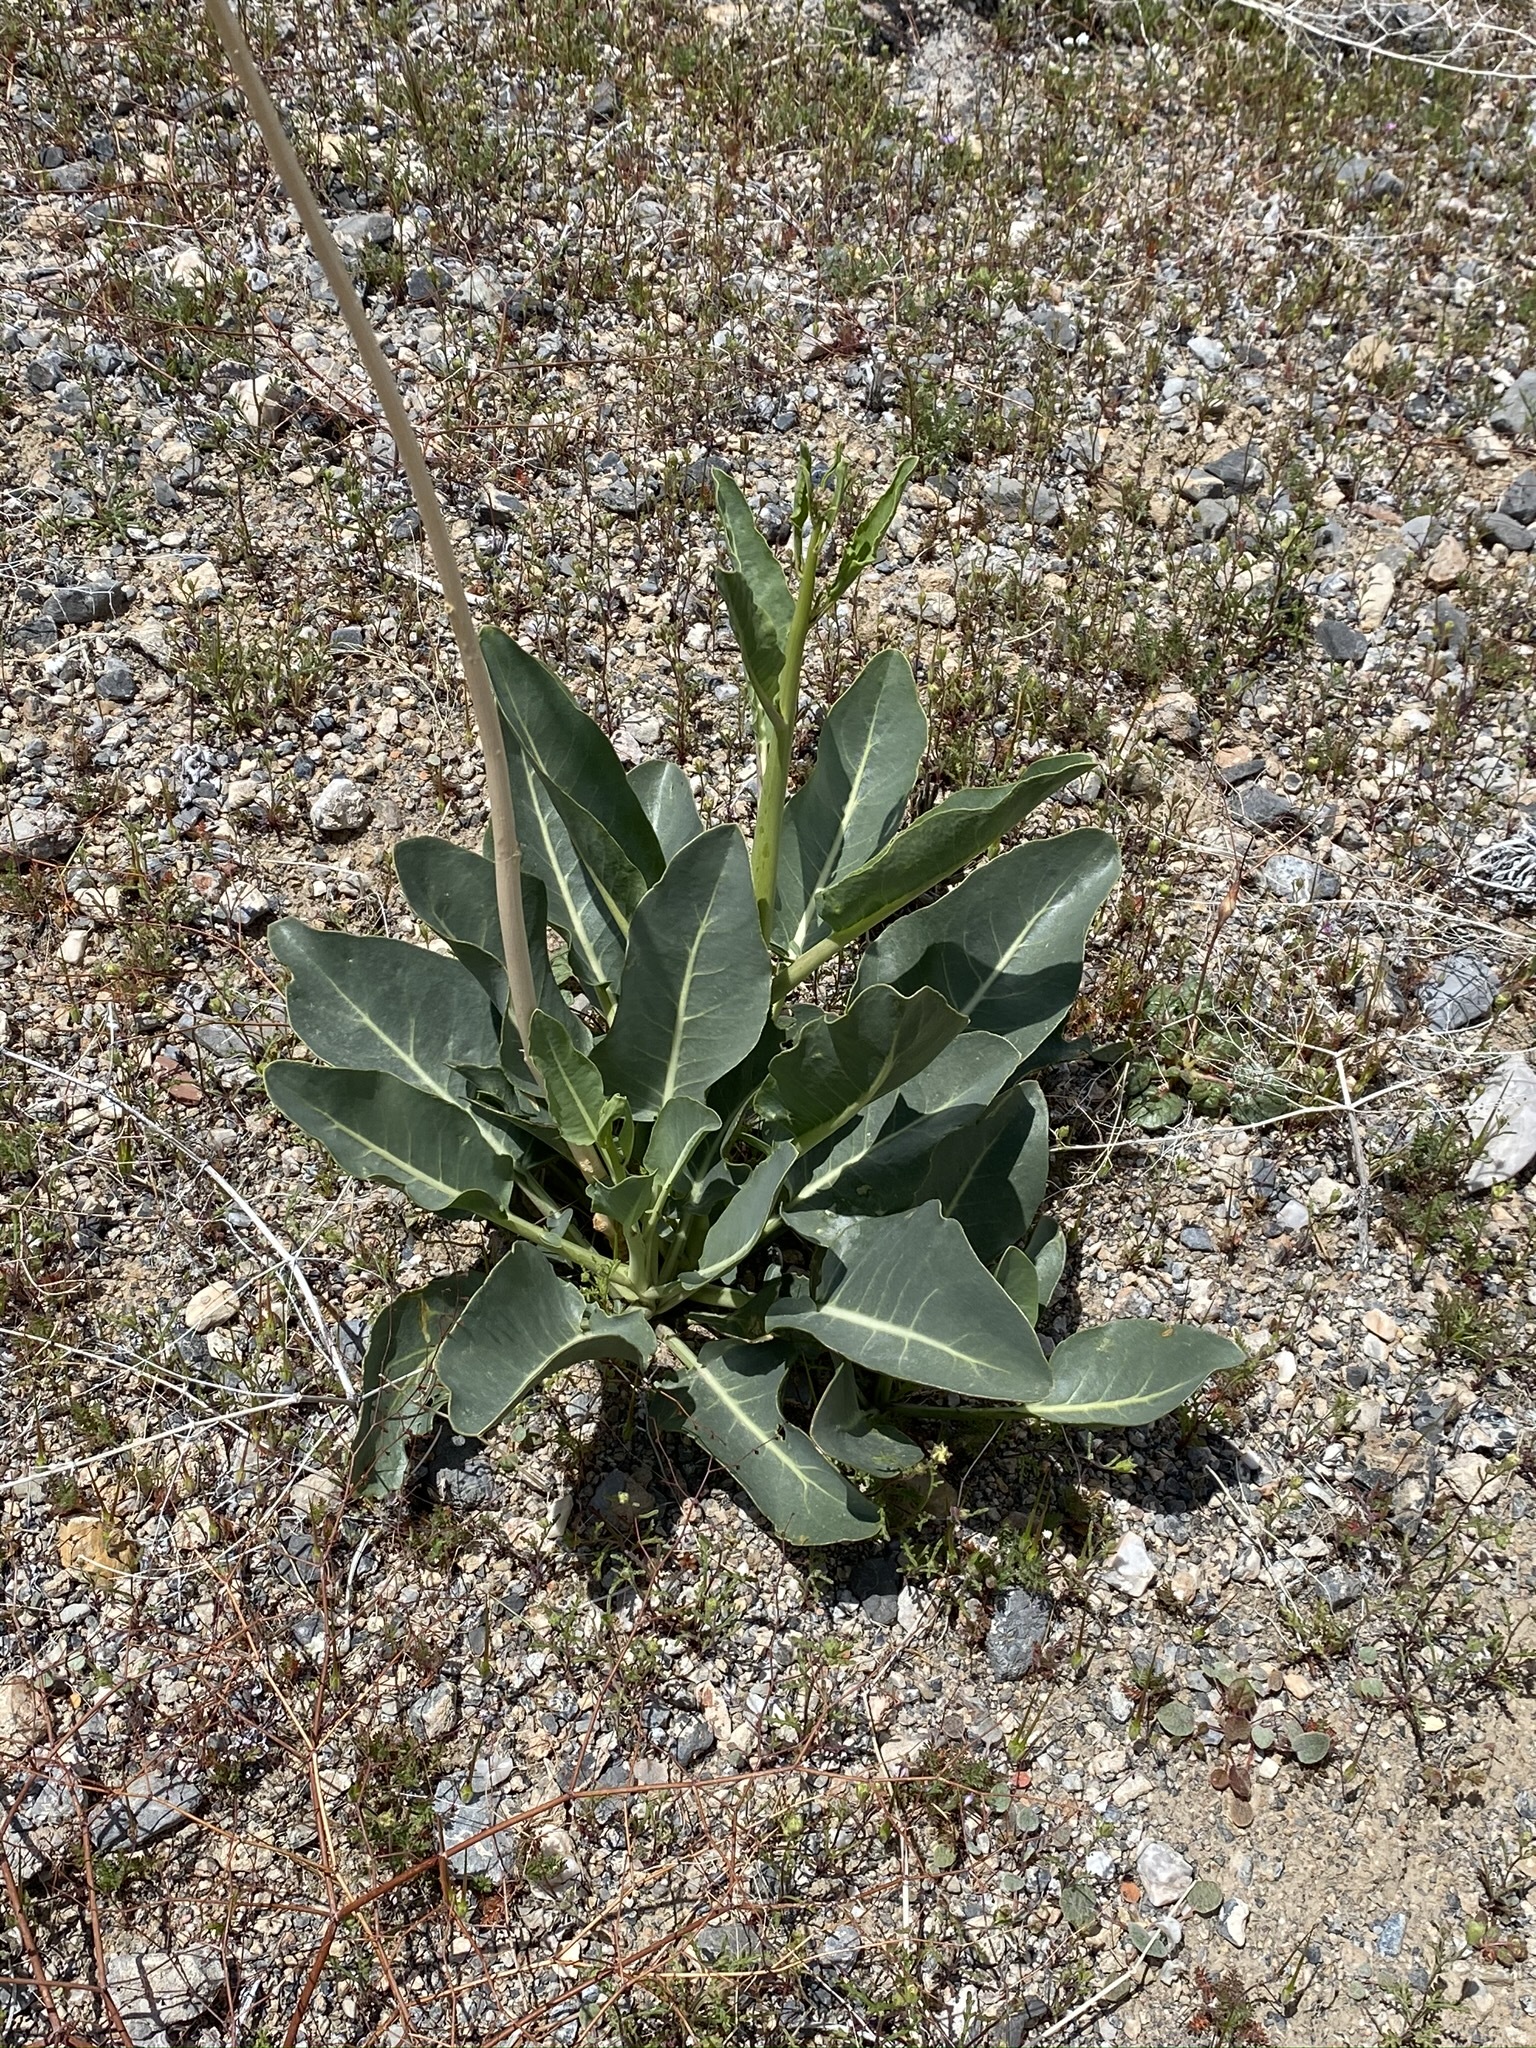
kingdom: Plantae
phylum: Tracheophyta
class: Magnoliopsida
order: Brassicales
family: Brassicaceae
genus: Stanleya
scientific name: Stanleya elata
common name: Panamint prince's plume
